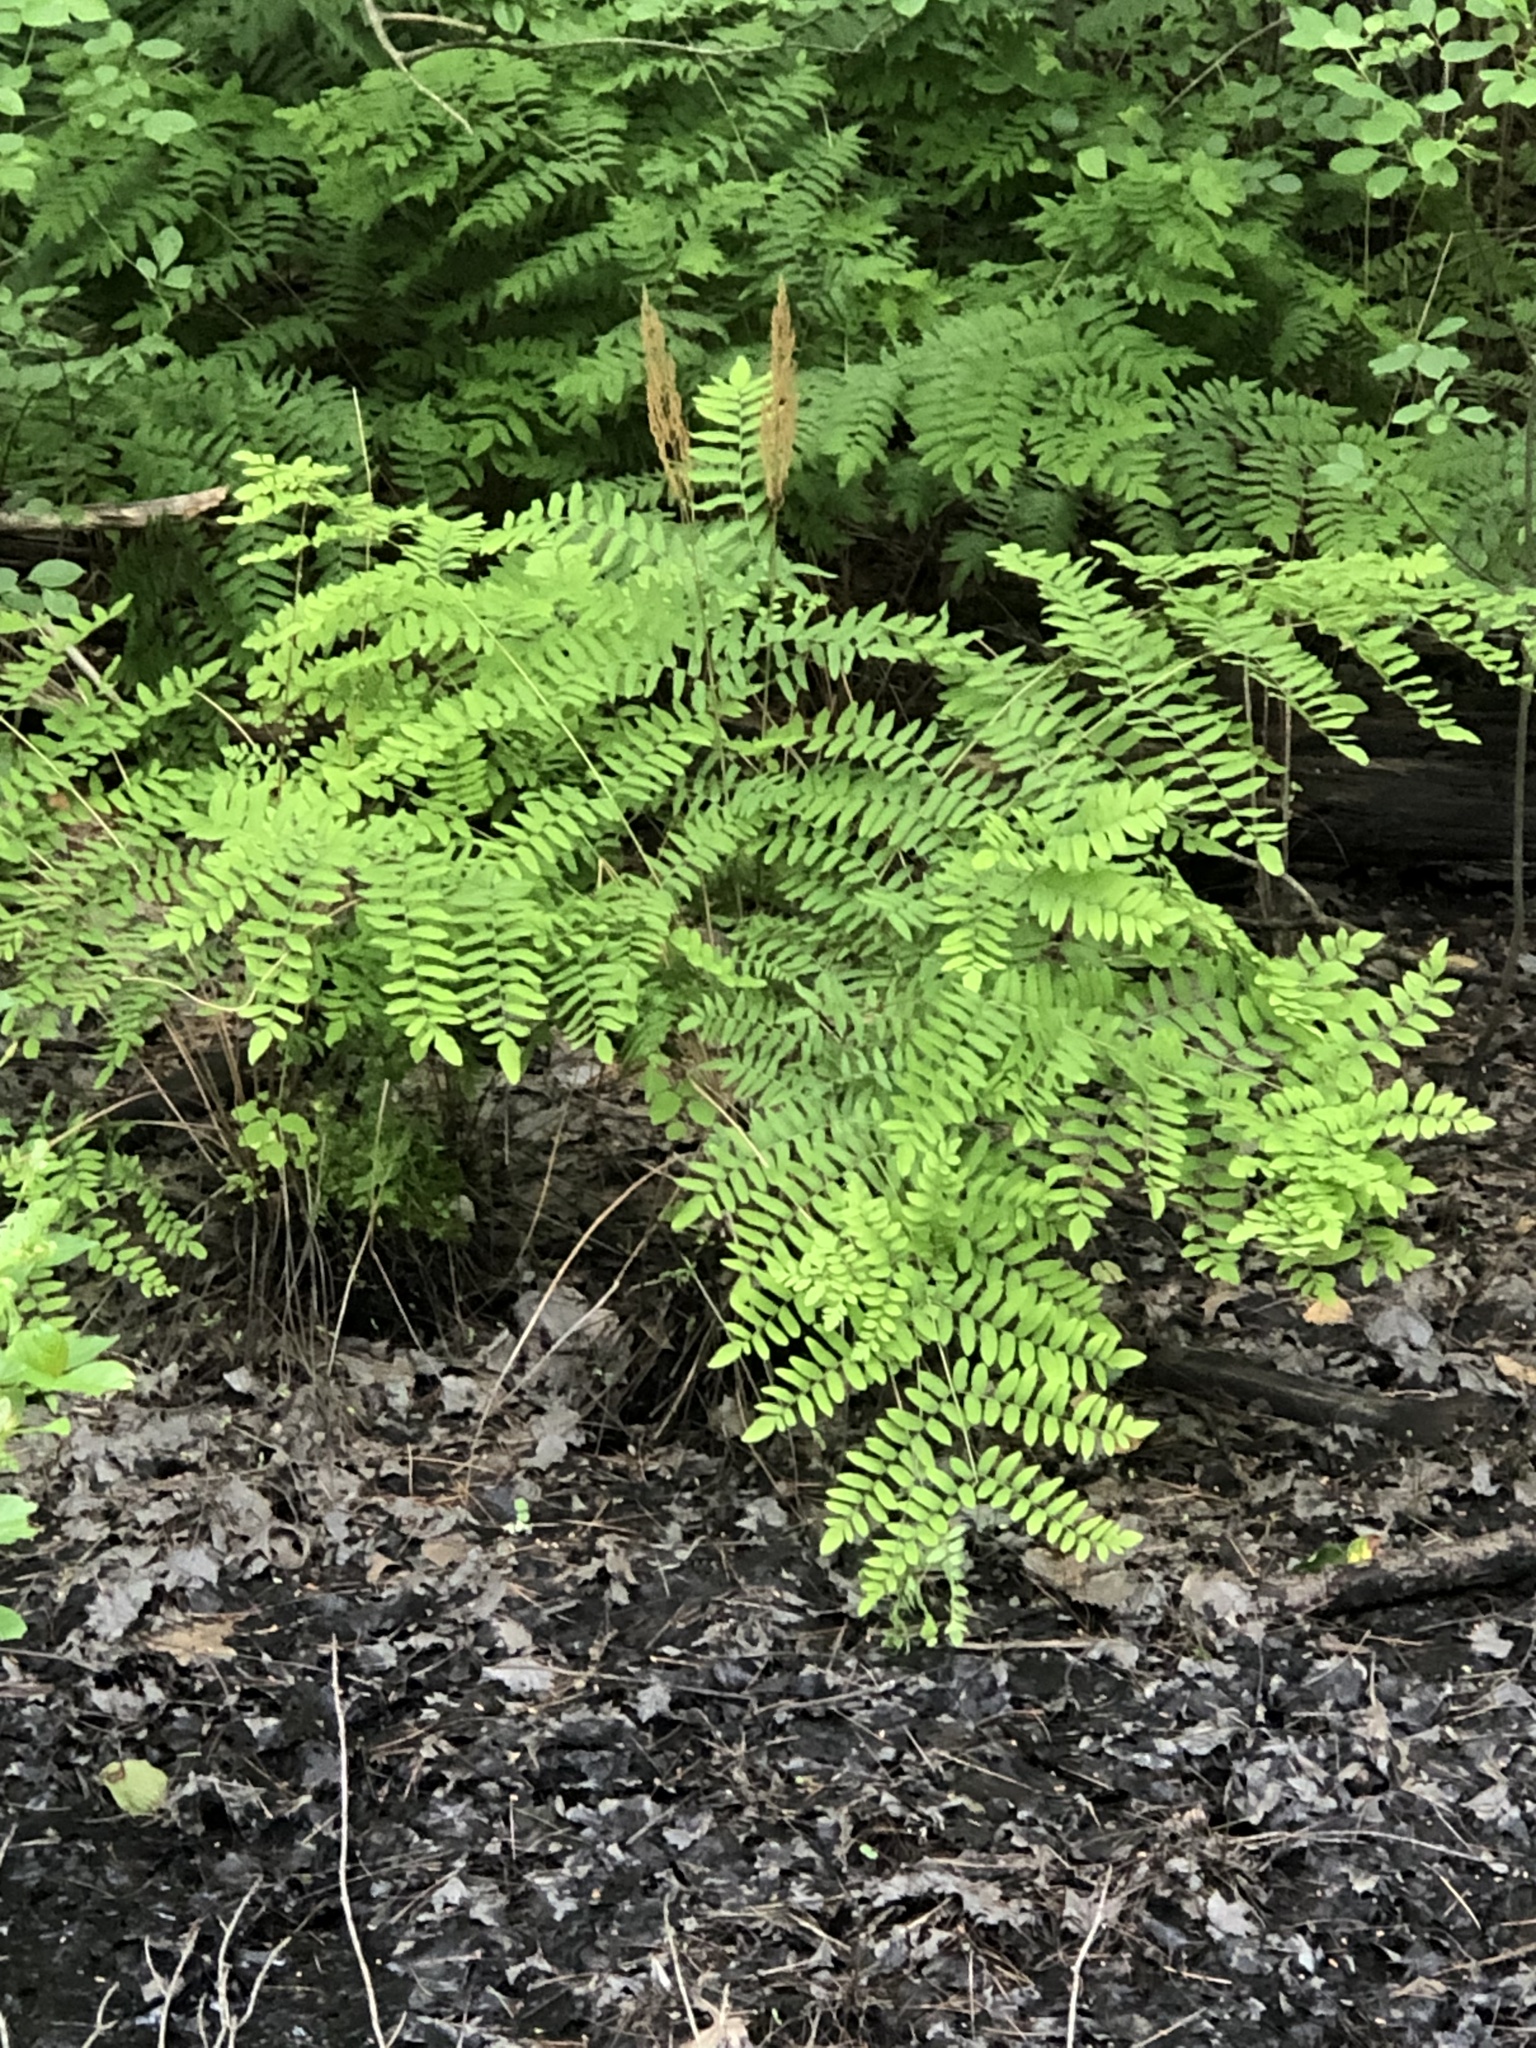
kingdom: Plantae
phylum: Tracheophyta
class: Polypodiopsida
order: Osmundales
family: Osmundaceae
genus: Osmunda
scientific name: Osmunda spectabilis
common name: American royal fern
